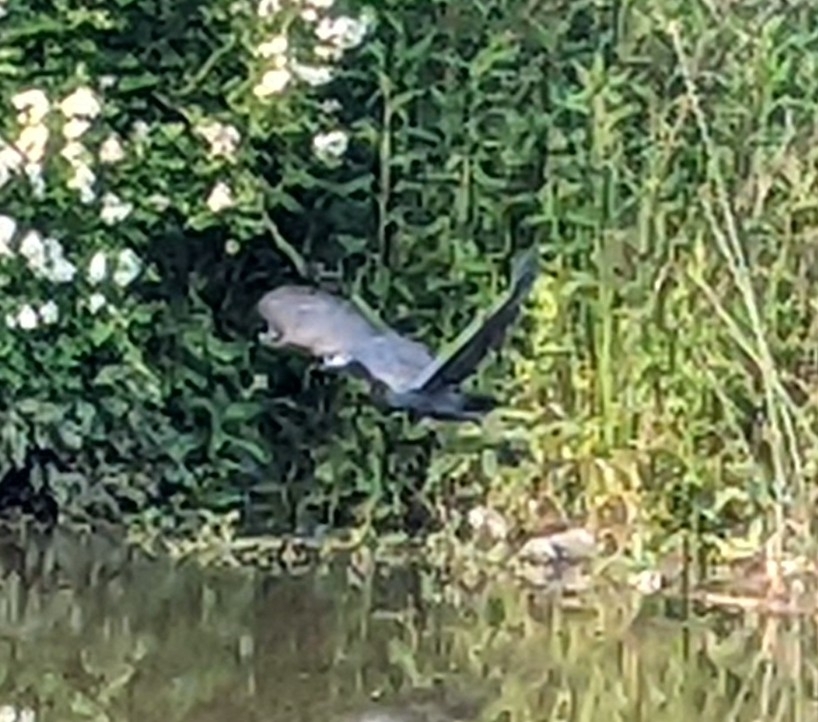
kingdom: Animalia
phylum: Chordata
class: Aves
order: Pelecaniformes
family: Ardeidae
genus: Egretta
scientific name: Egretta caerulea
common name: Little blue heron
